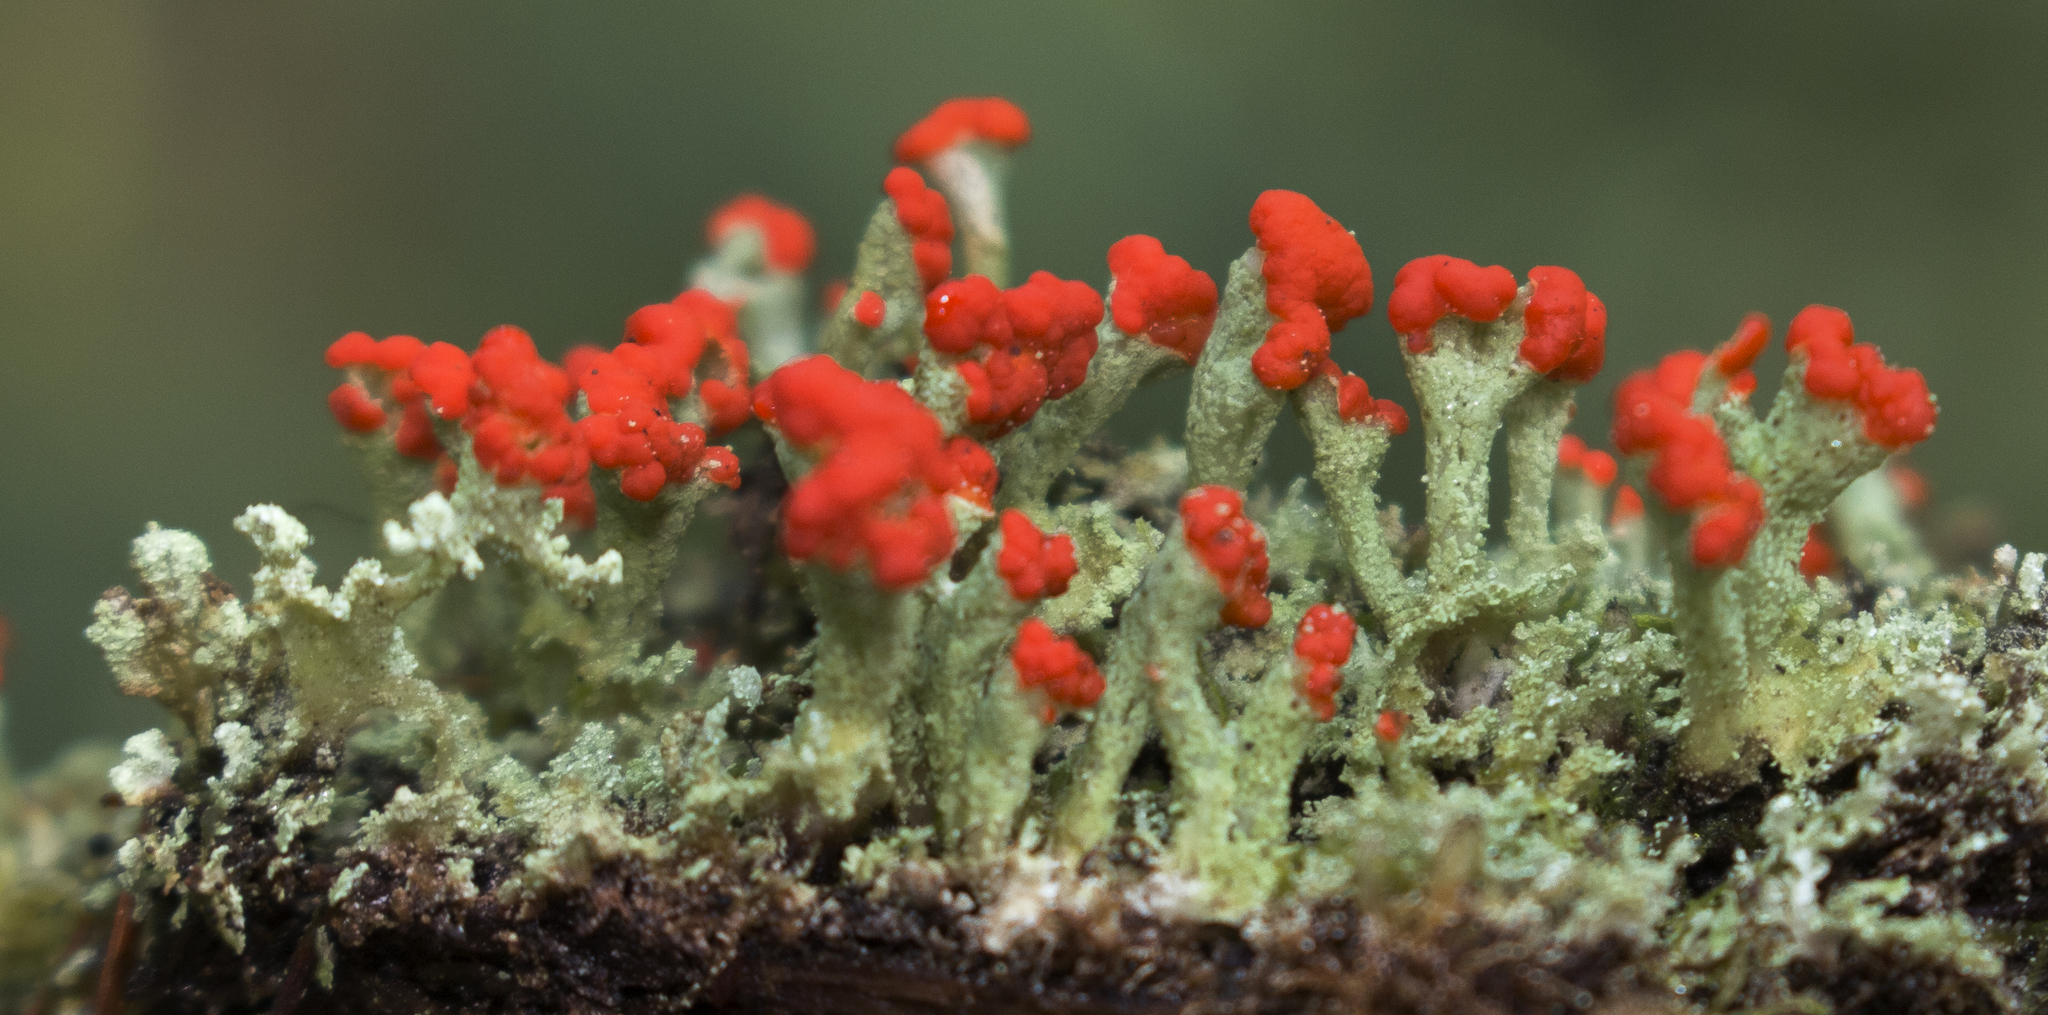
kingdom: Fungi
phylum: Ascomycota
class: Lecanoromycetes
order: Lecanorales
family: Cladoniaceae
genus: Cladonia
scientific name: Cladonia cristatella
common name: British soldier lichen
